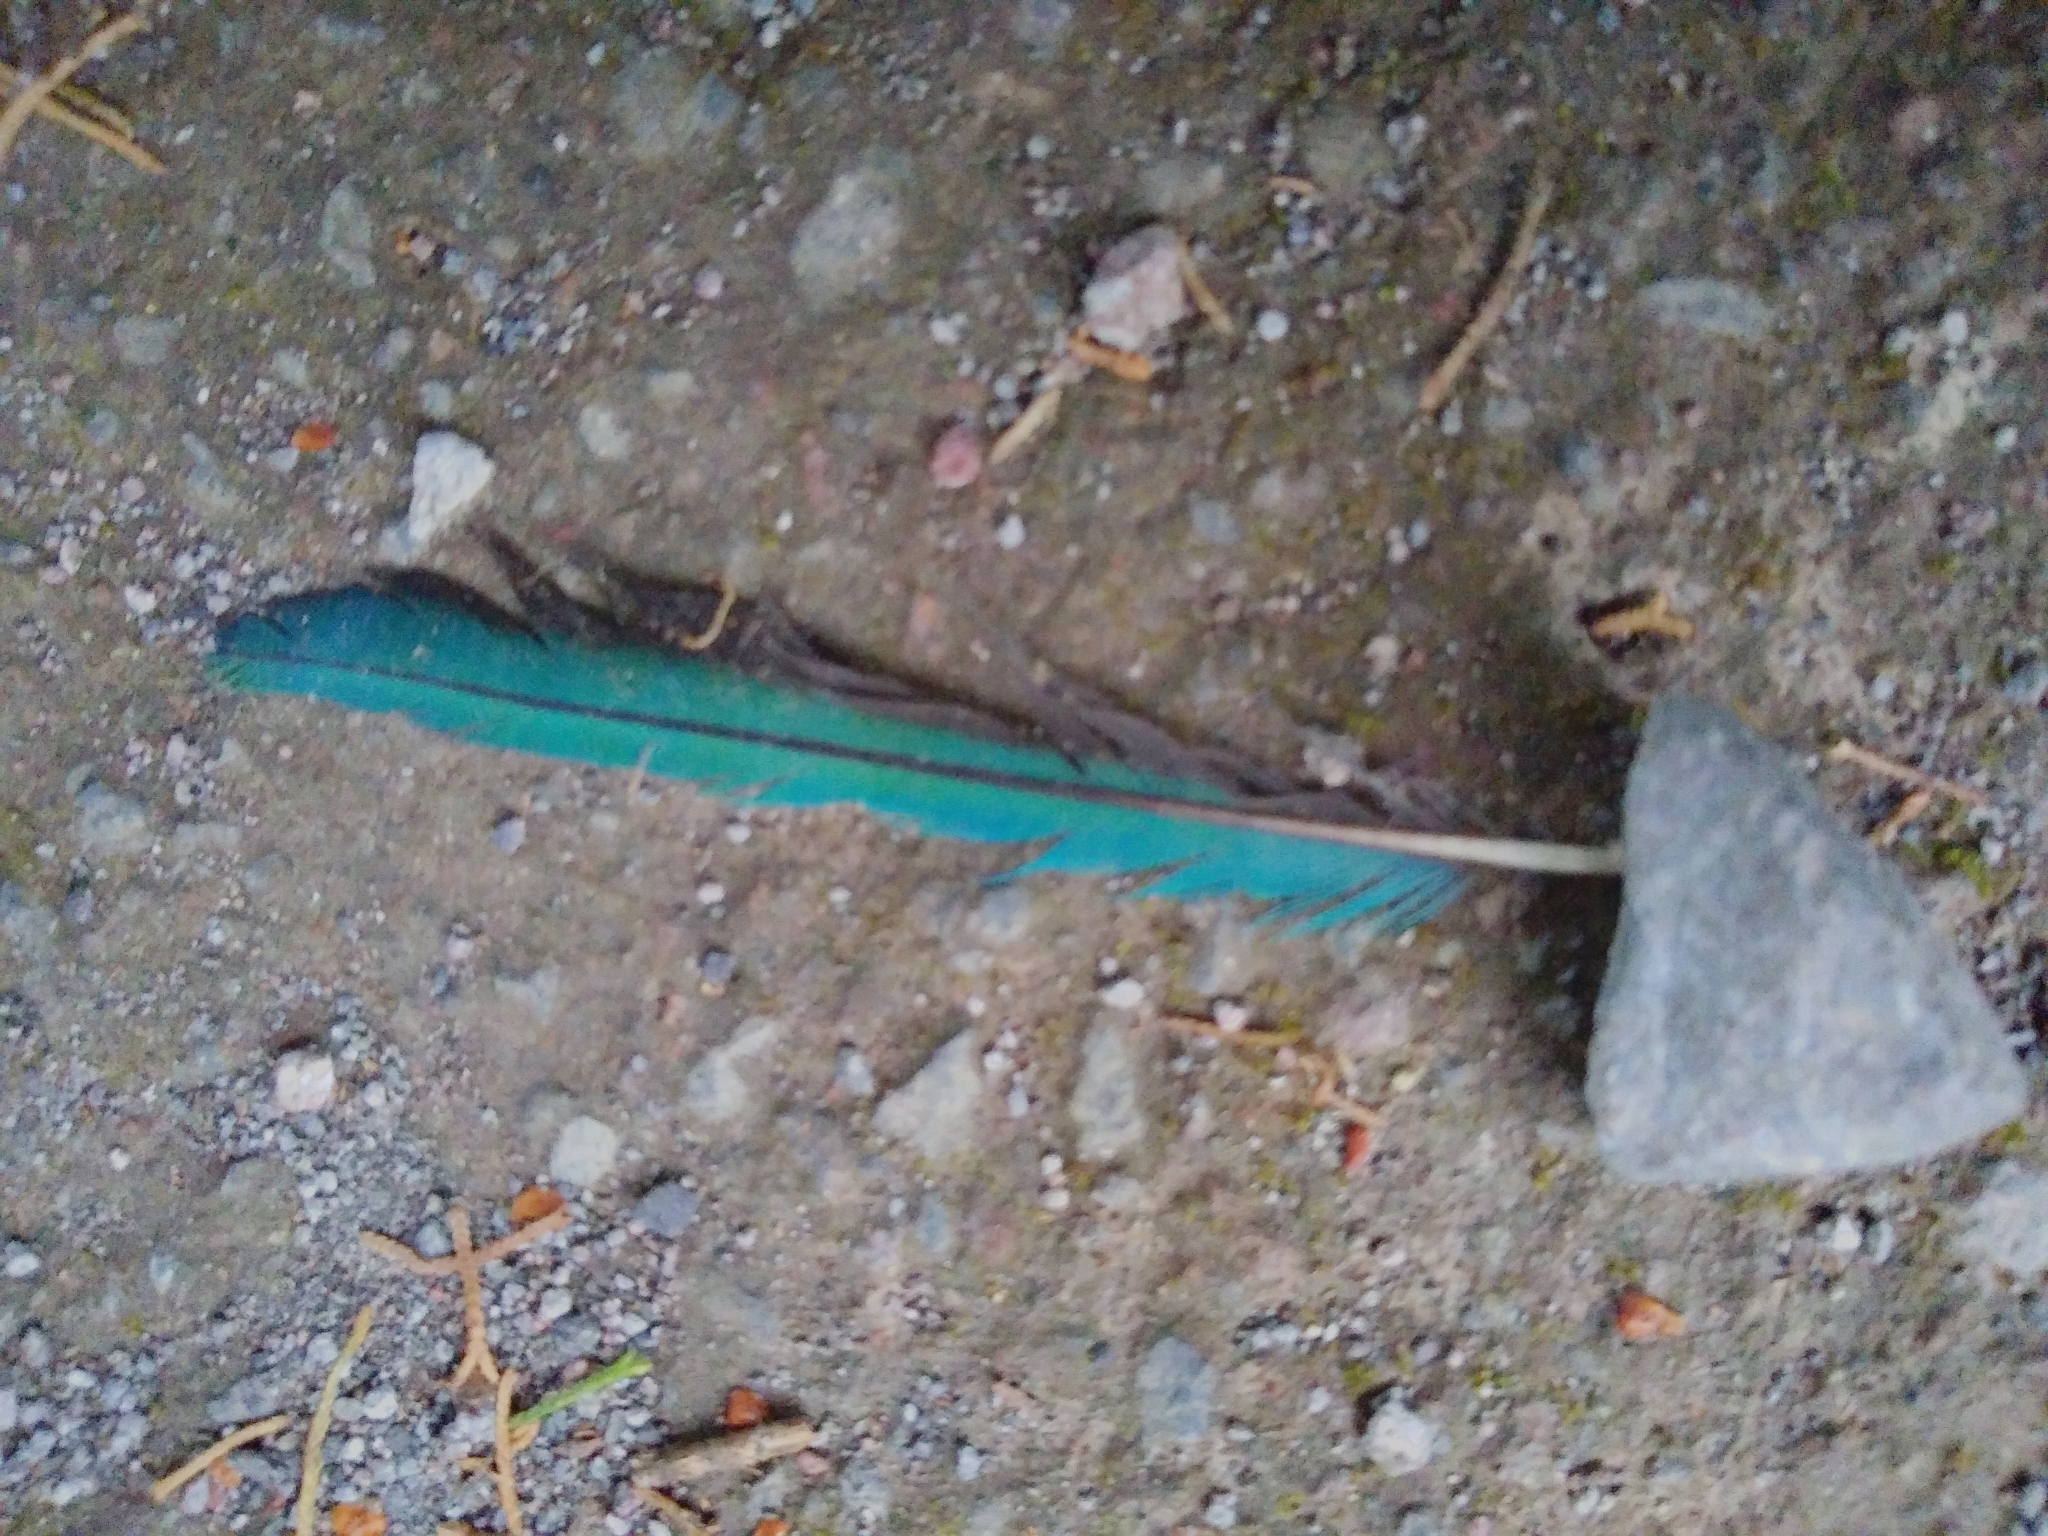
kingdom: Animalia
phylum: Chordata
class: Aves
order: Coraciiformes
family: Momotidae
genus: Momotus
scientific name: Momotus lessonii
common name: Lesson's motmot
